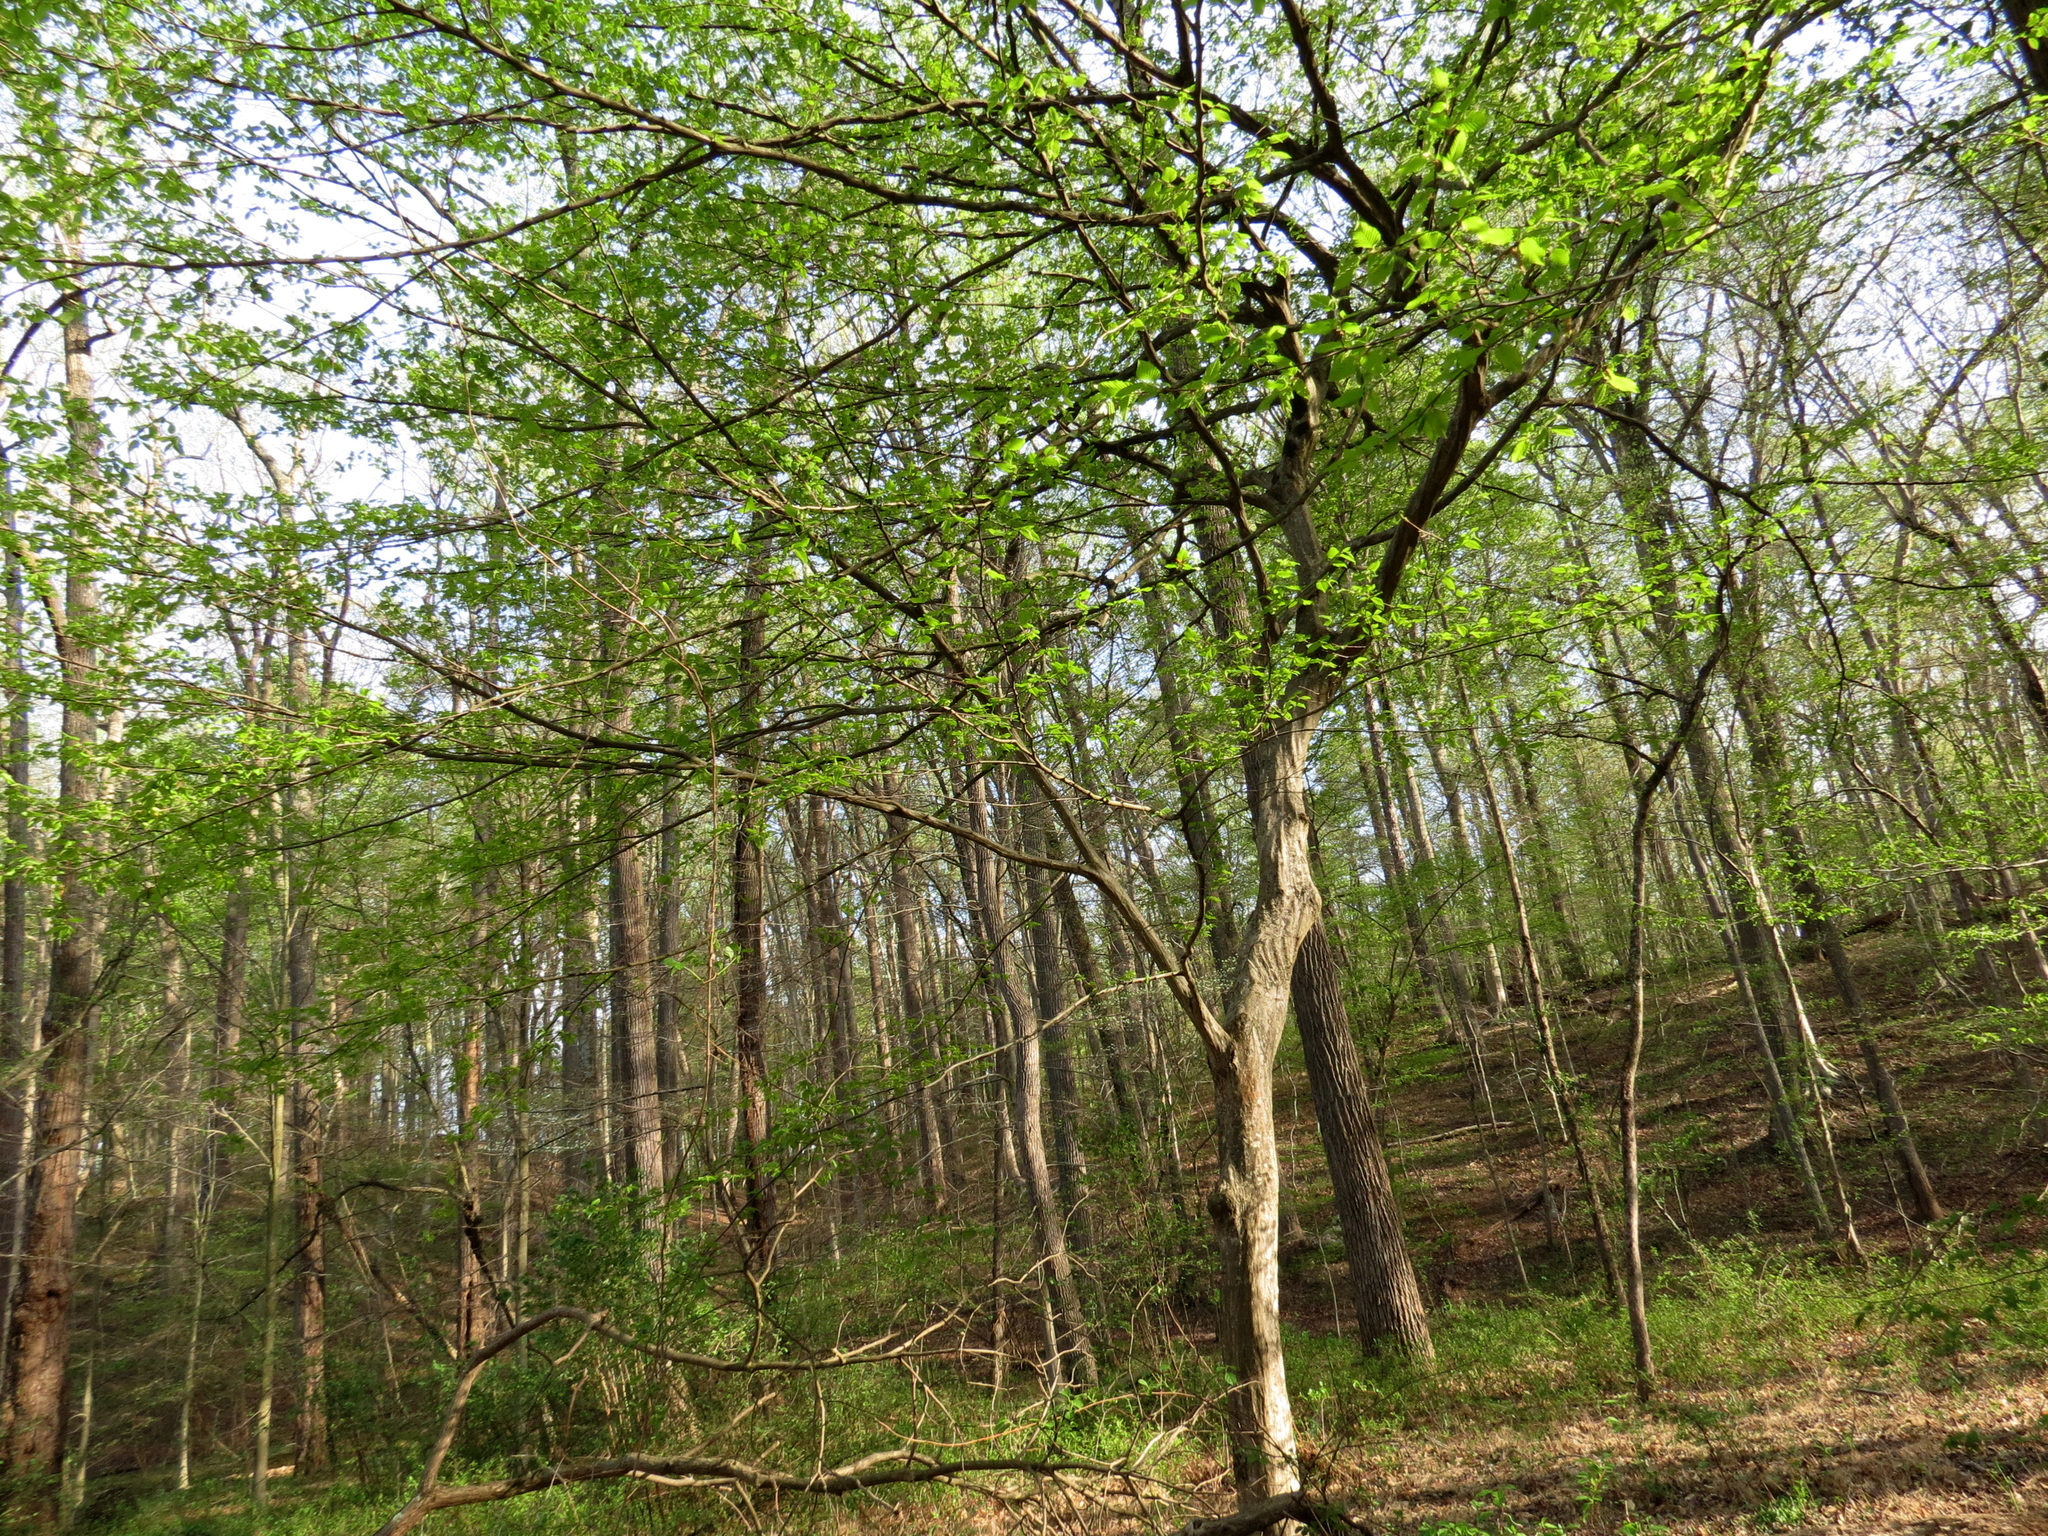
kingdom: Plantae
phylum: Tracheophyta
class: Magnoliopsida
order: Fagales
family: Betulaceae
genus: Carpinus
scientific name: Carpinus caroliniana
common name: American hornbeam
